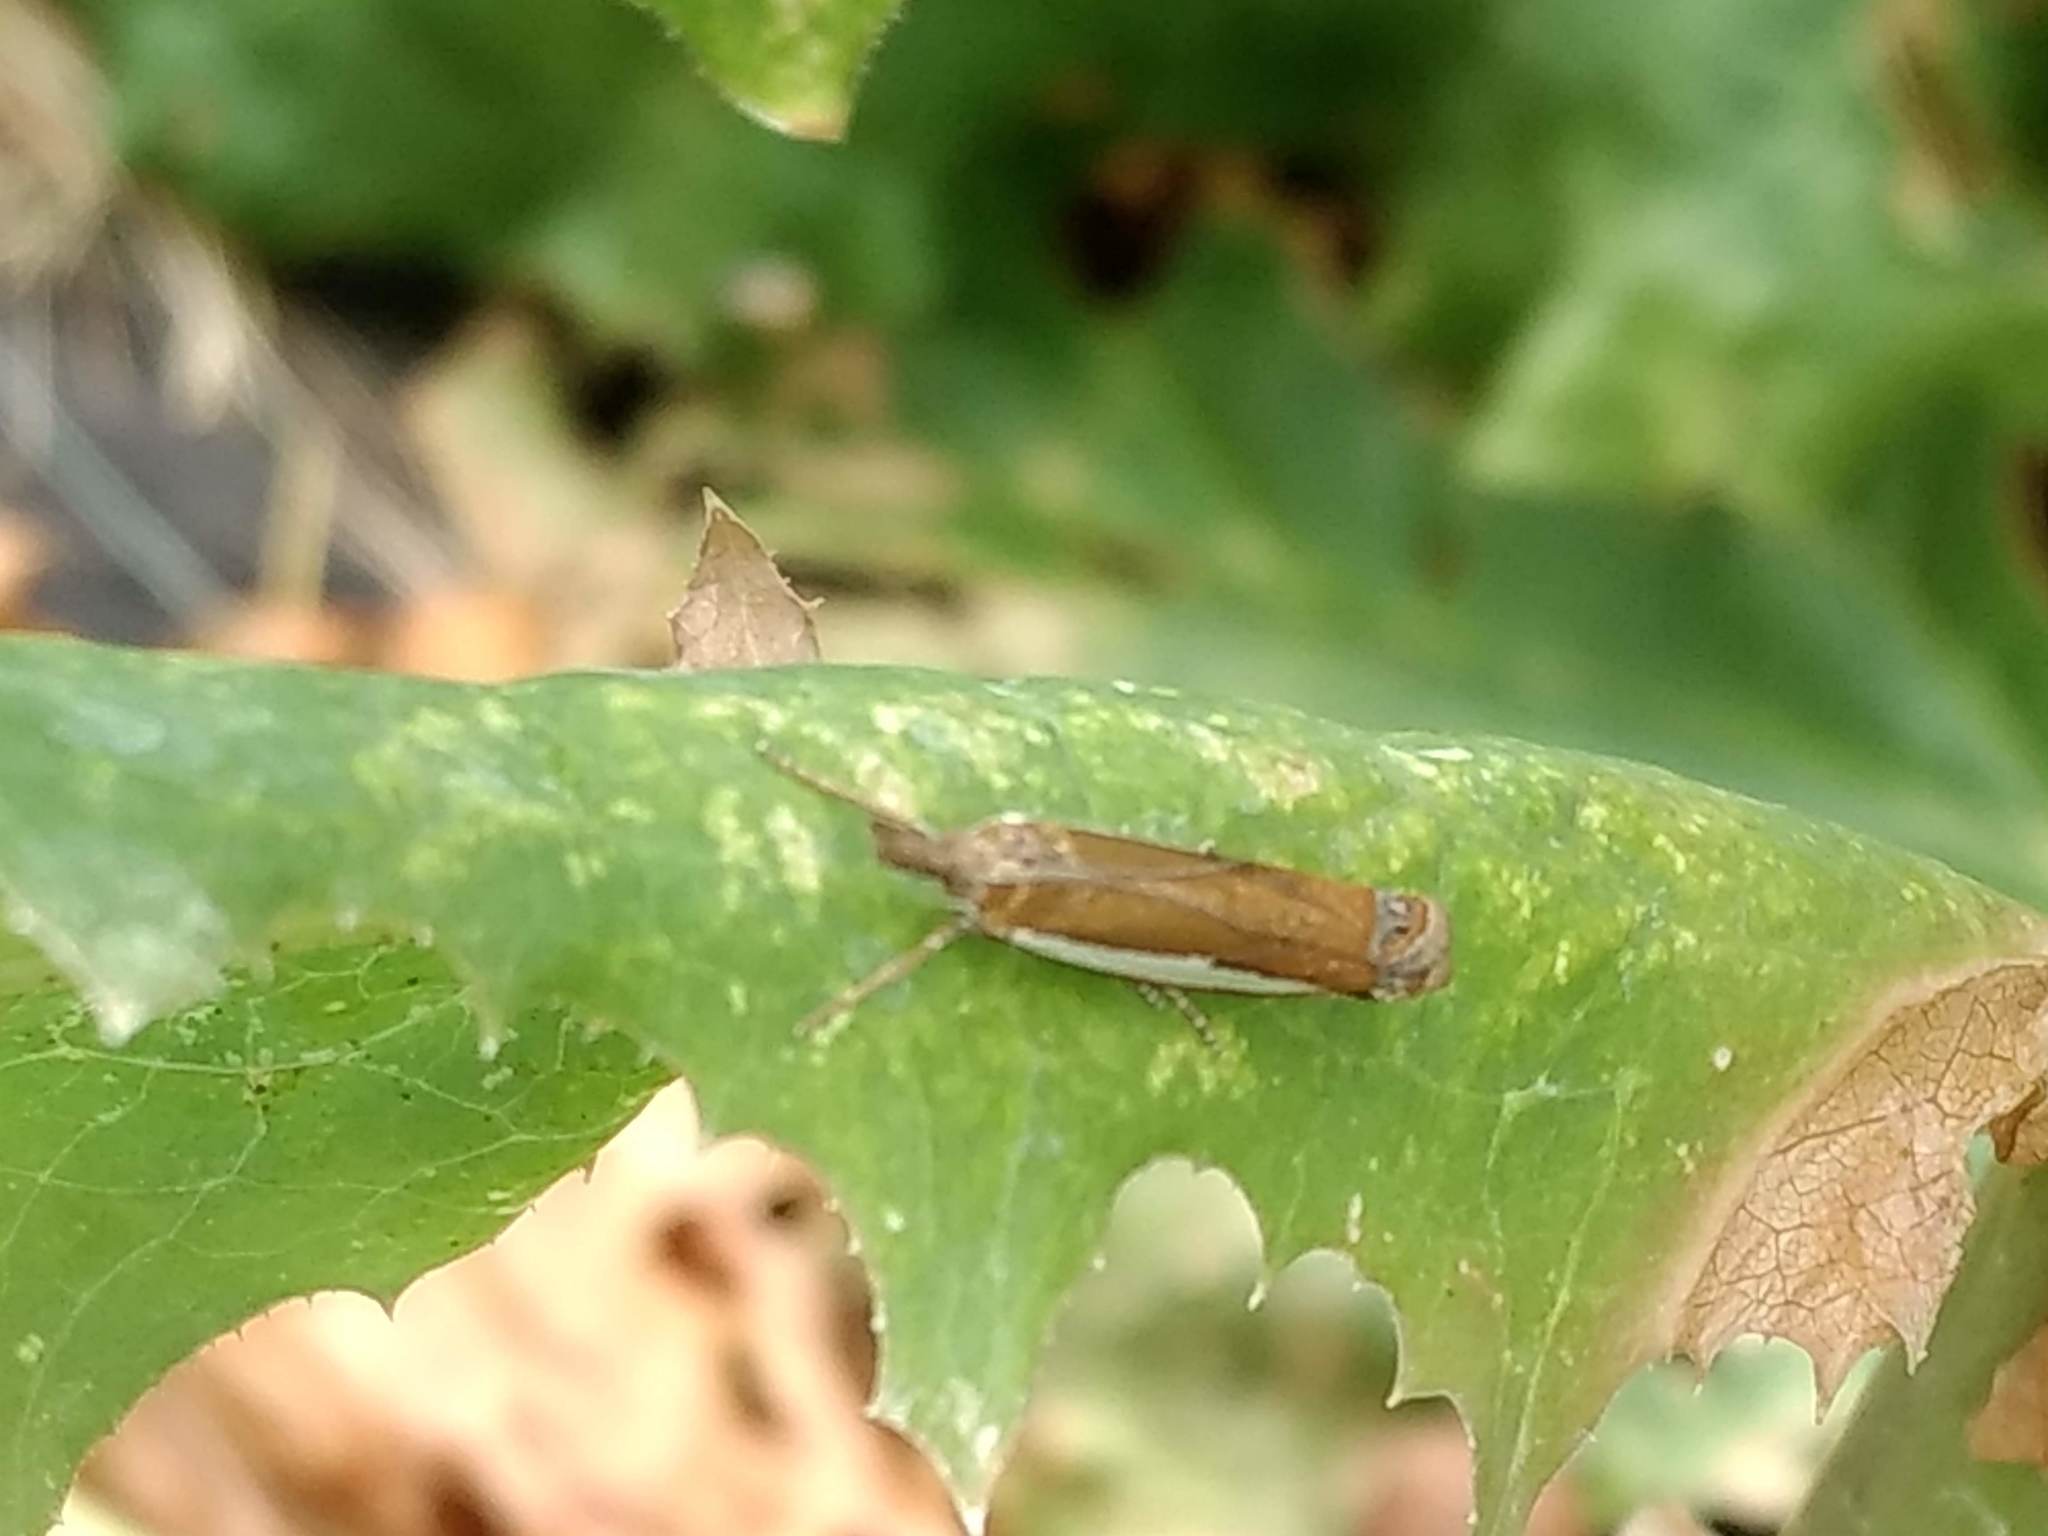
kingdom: Animalia
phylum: Arthropoda
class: Insecta
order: Lepidoptera
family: Crambidae
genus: Crambus
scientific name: Crambus
